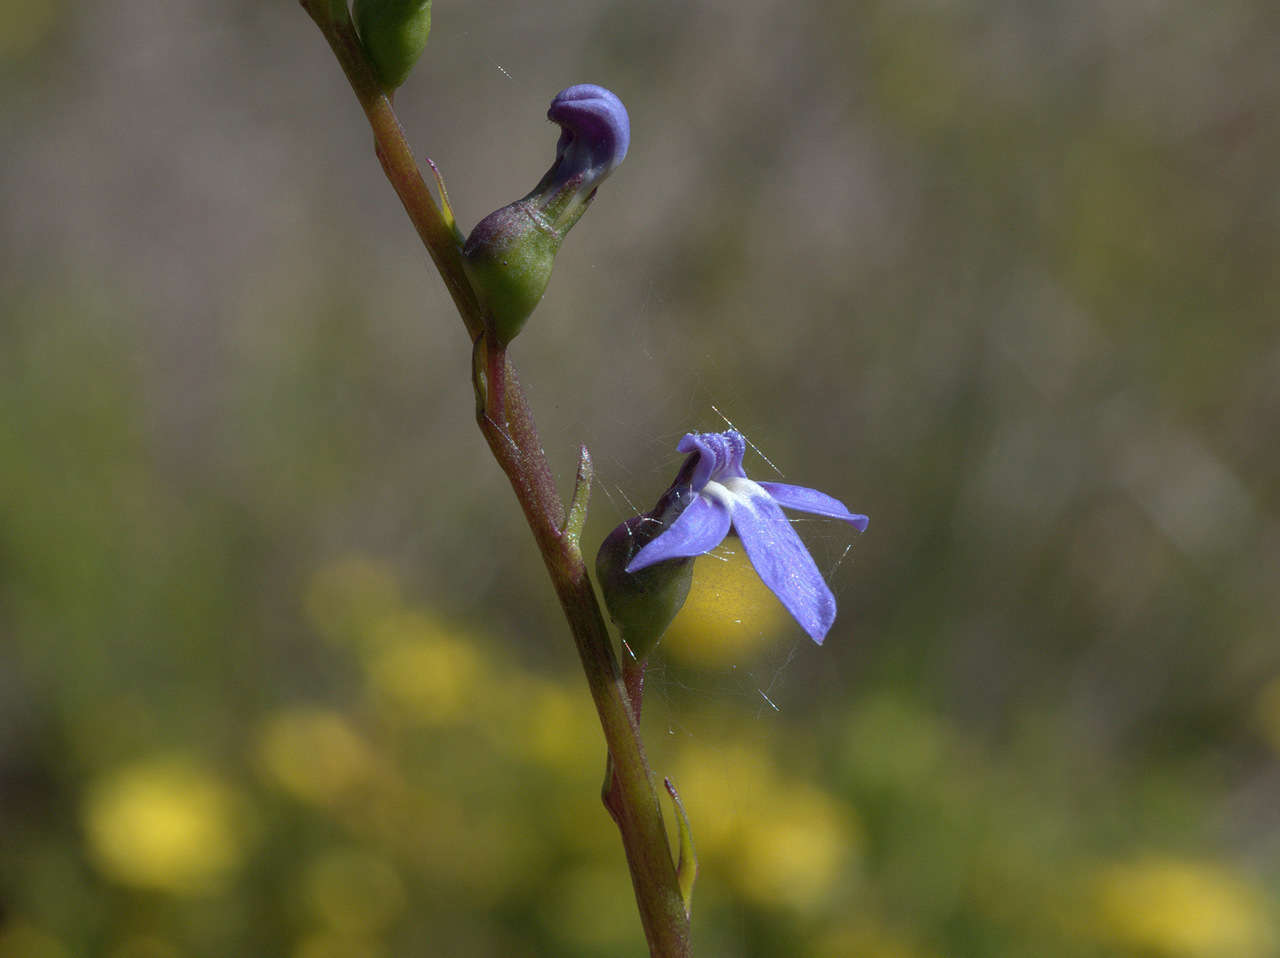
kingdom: Plantae
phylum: Tracheophyta
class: Magnoliopsida
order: Asterales
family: Campanulaceae
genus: Lobelia
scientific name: Lobelia gibbosa
